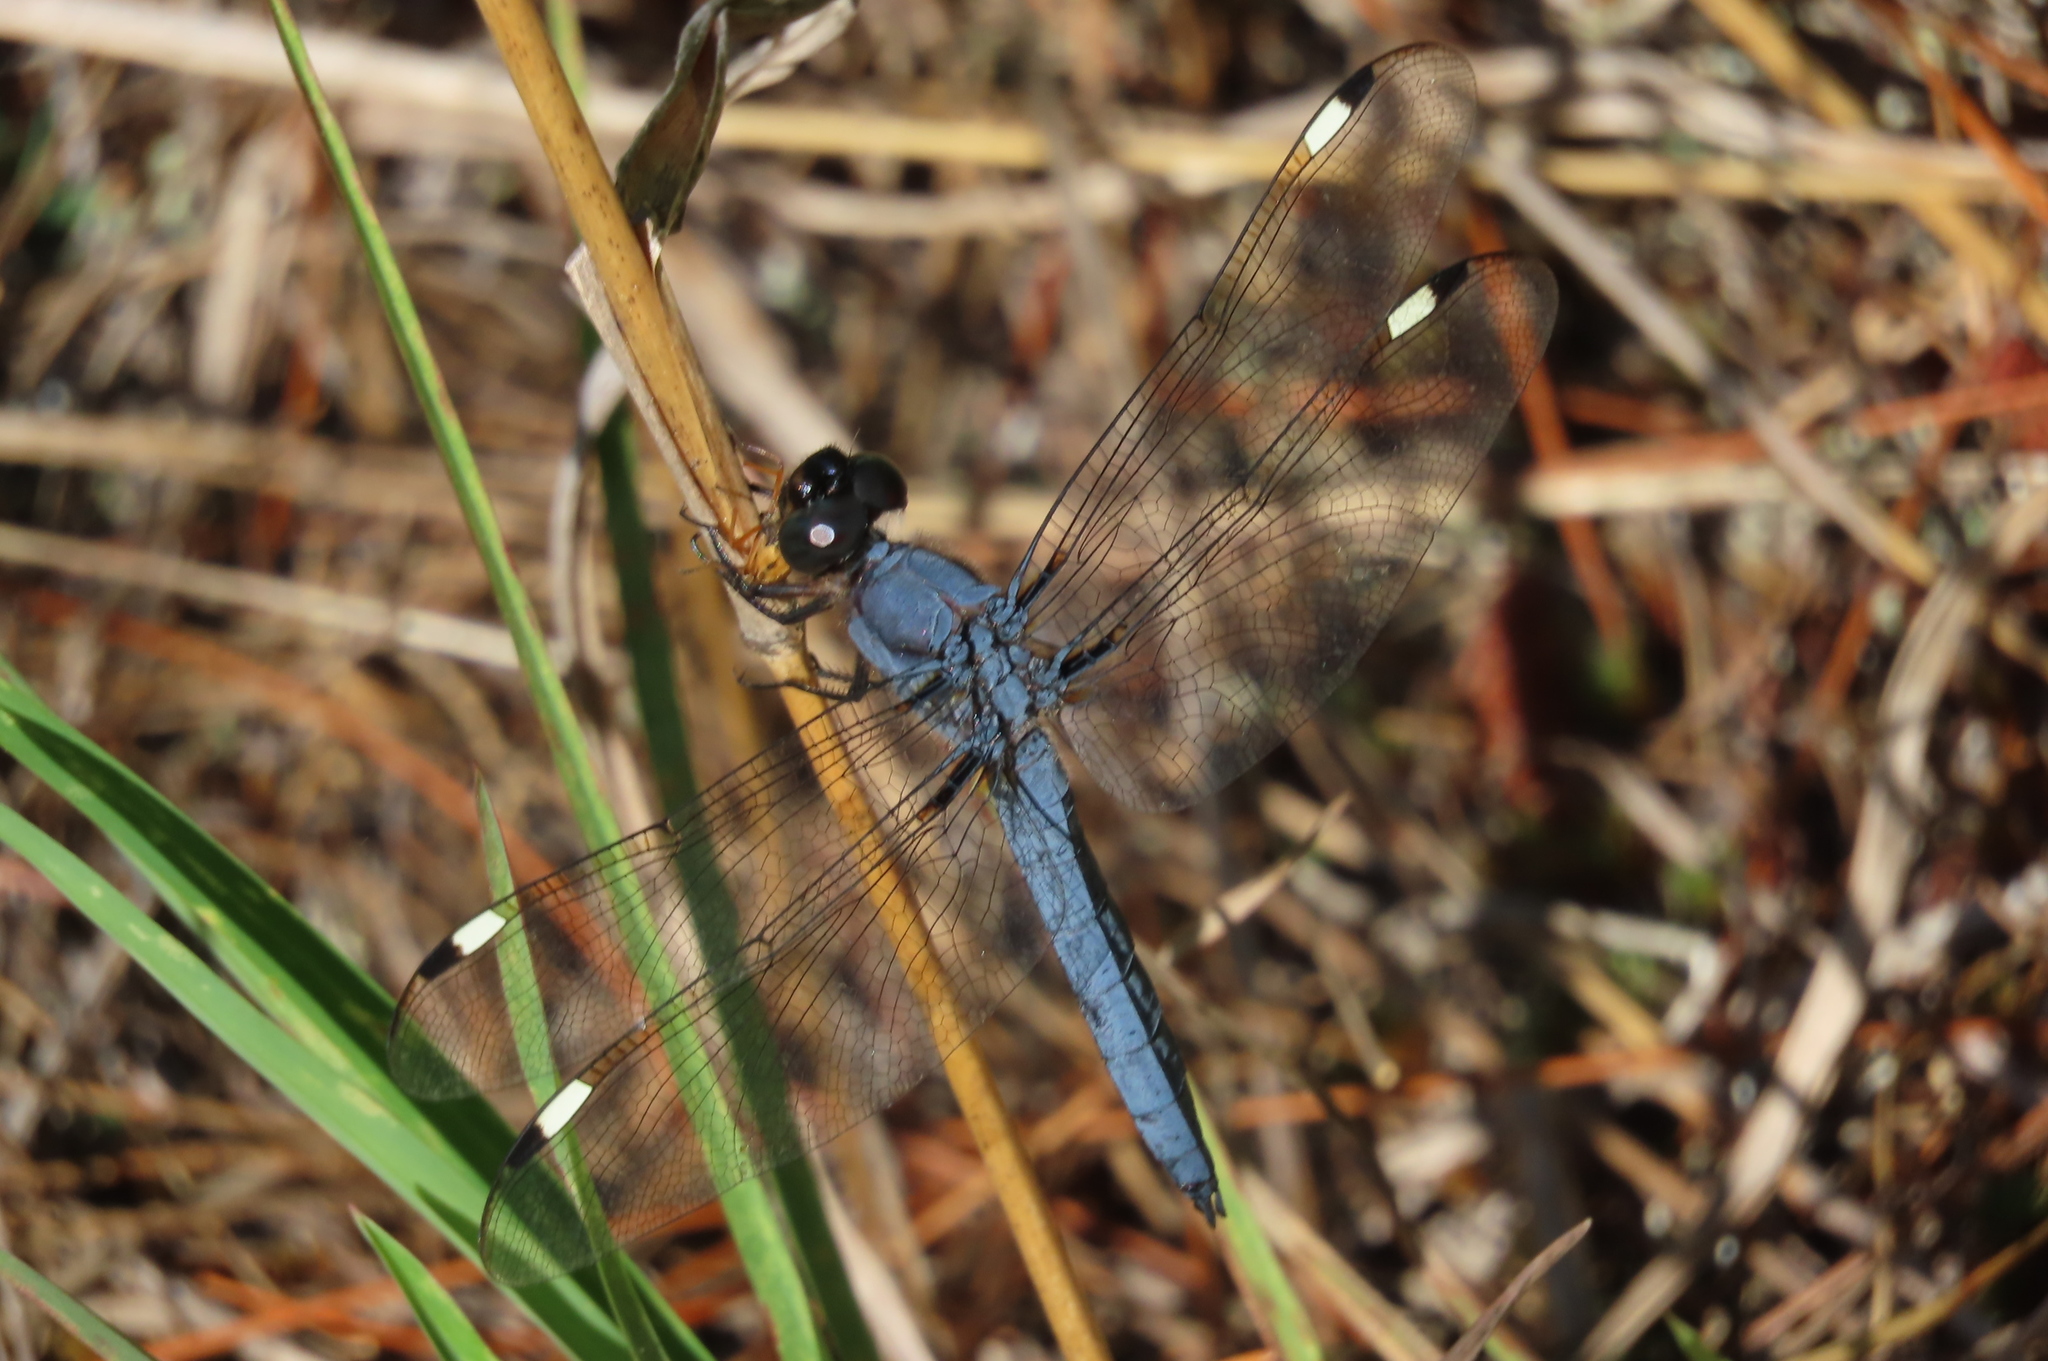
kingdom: Animalia
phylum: Arthropoda
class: Insecta
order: Odonata
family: Libellulidae
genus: Libellula
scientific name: Libellula cyanea
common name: Spangled skimmer
